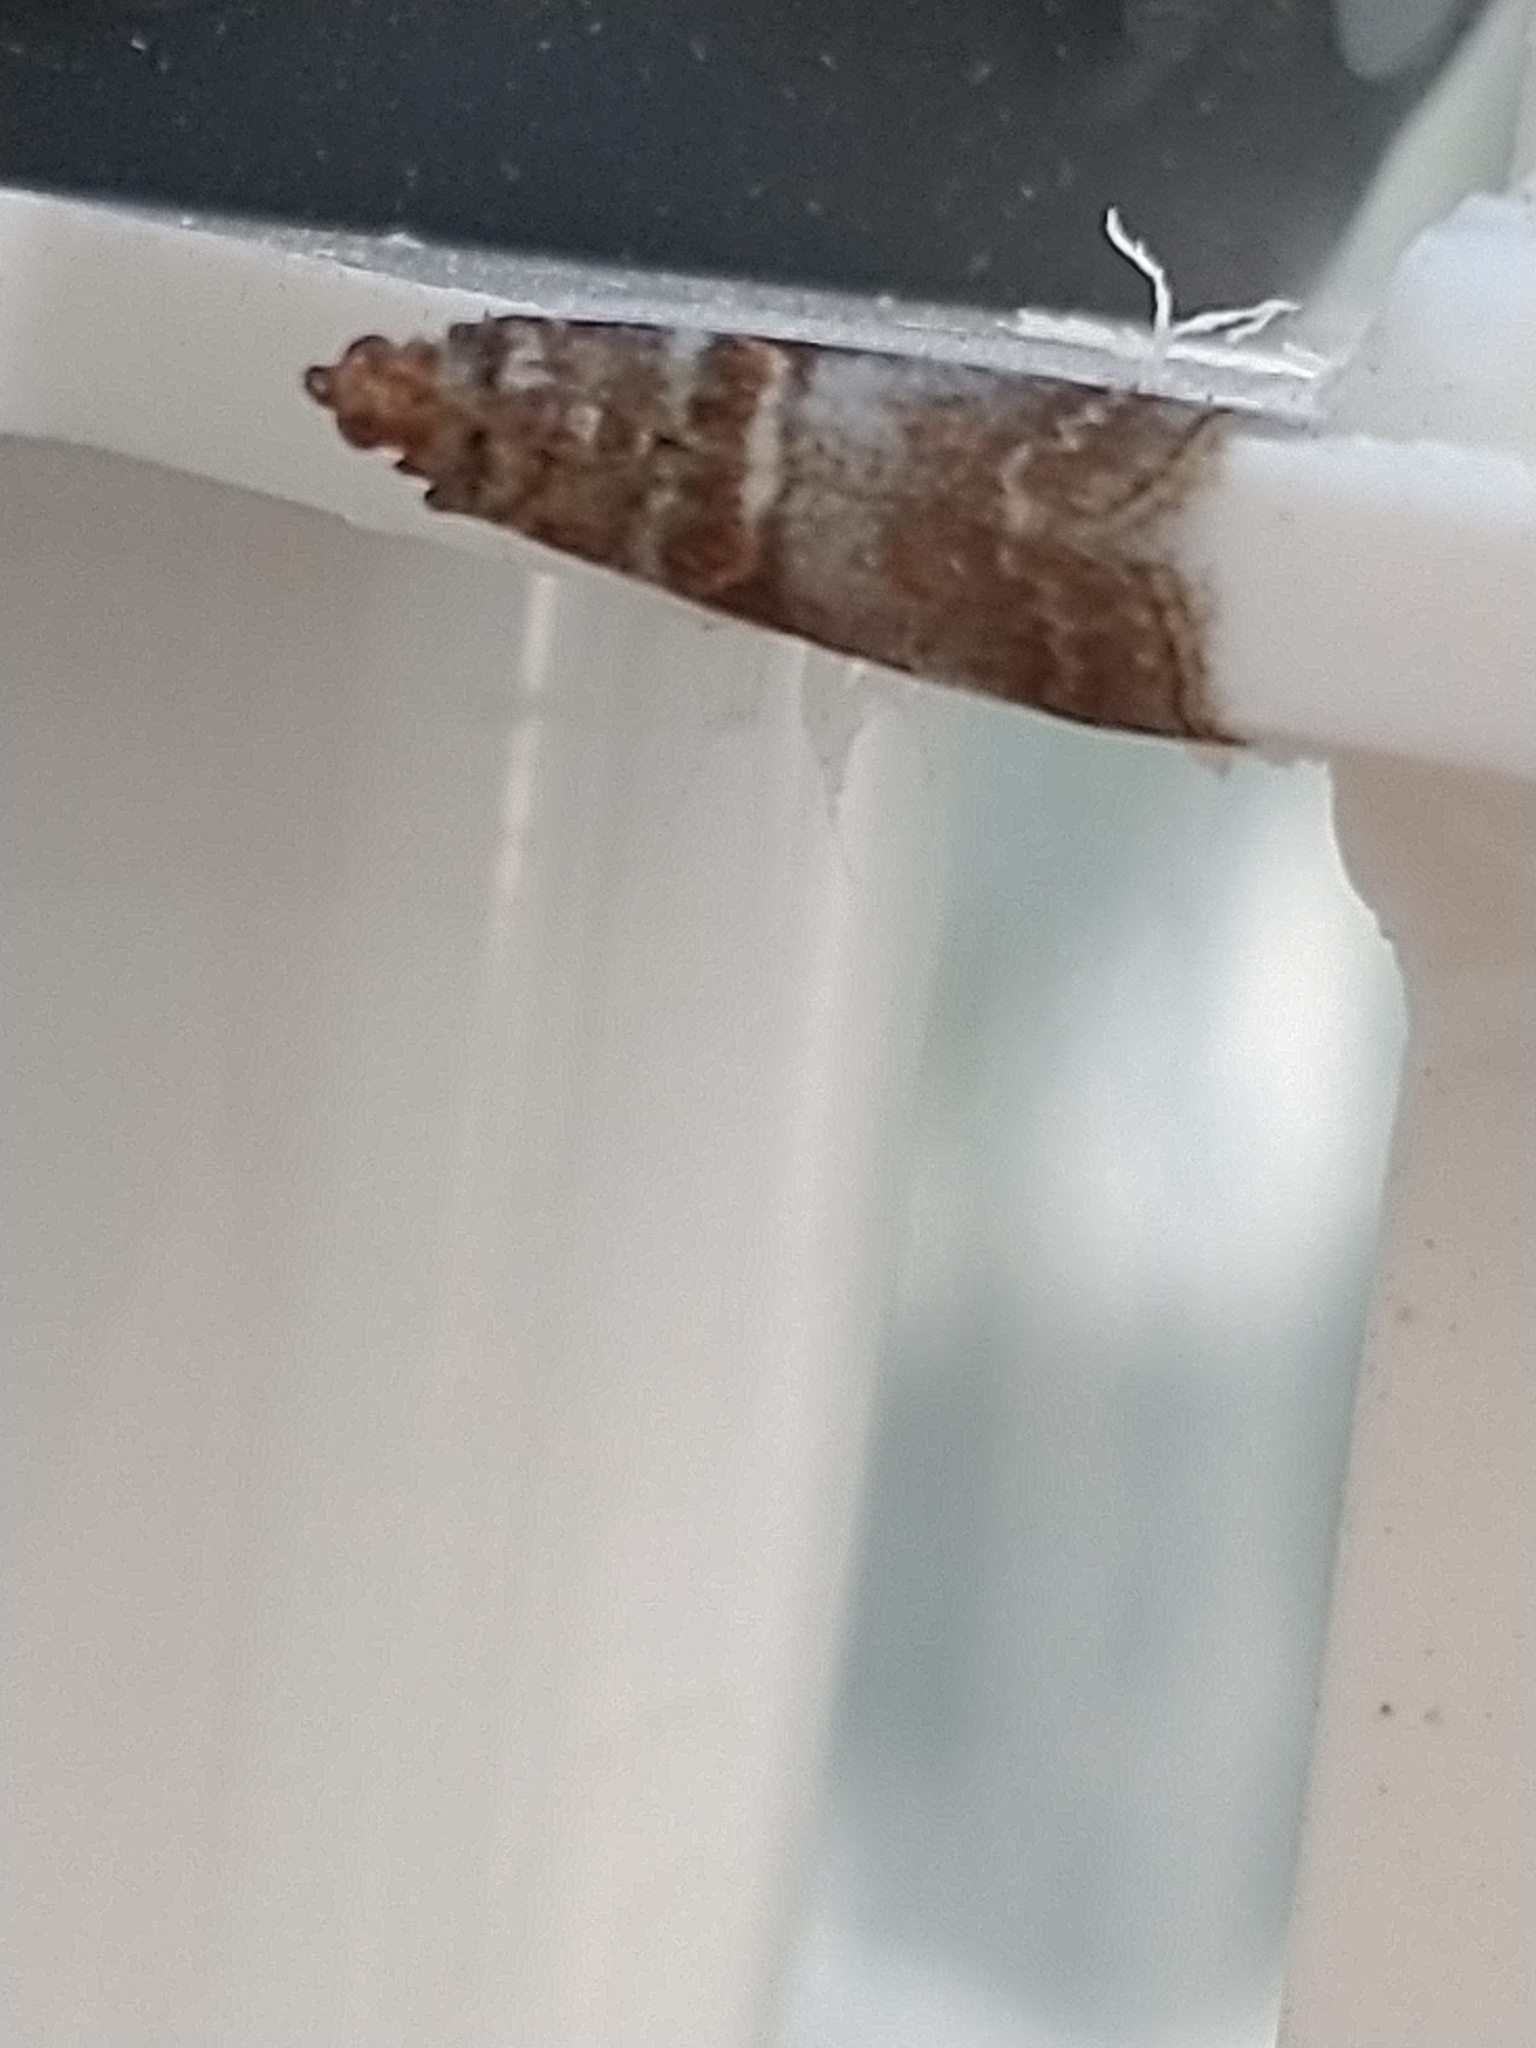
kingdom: Animalia
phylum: Arthropoda
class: Insecta
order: Lepidoptera
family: Pyralidae
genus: Acrobasis
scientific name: Acrobasis advenella
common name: Grey knot-horn
